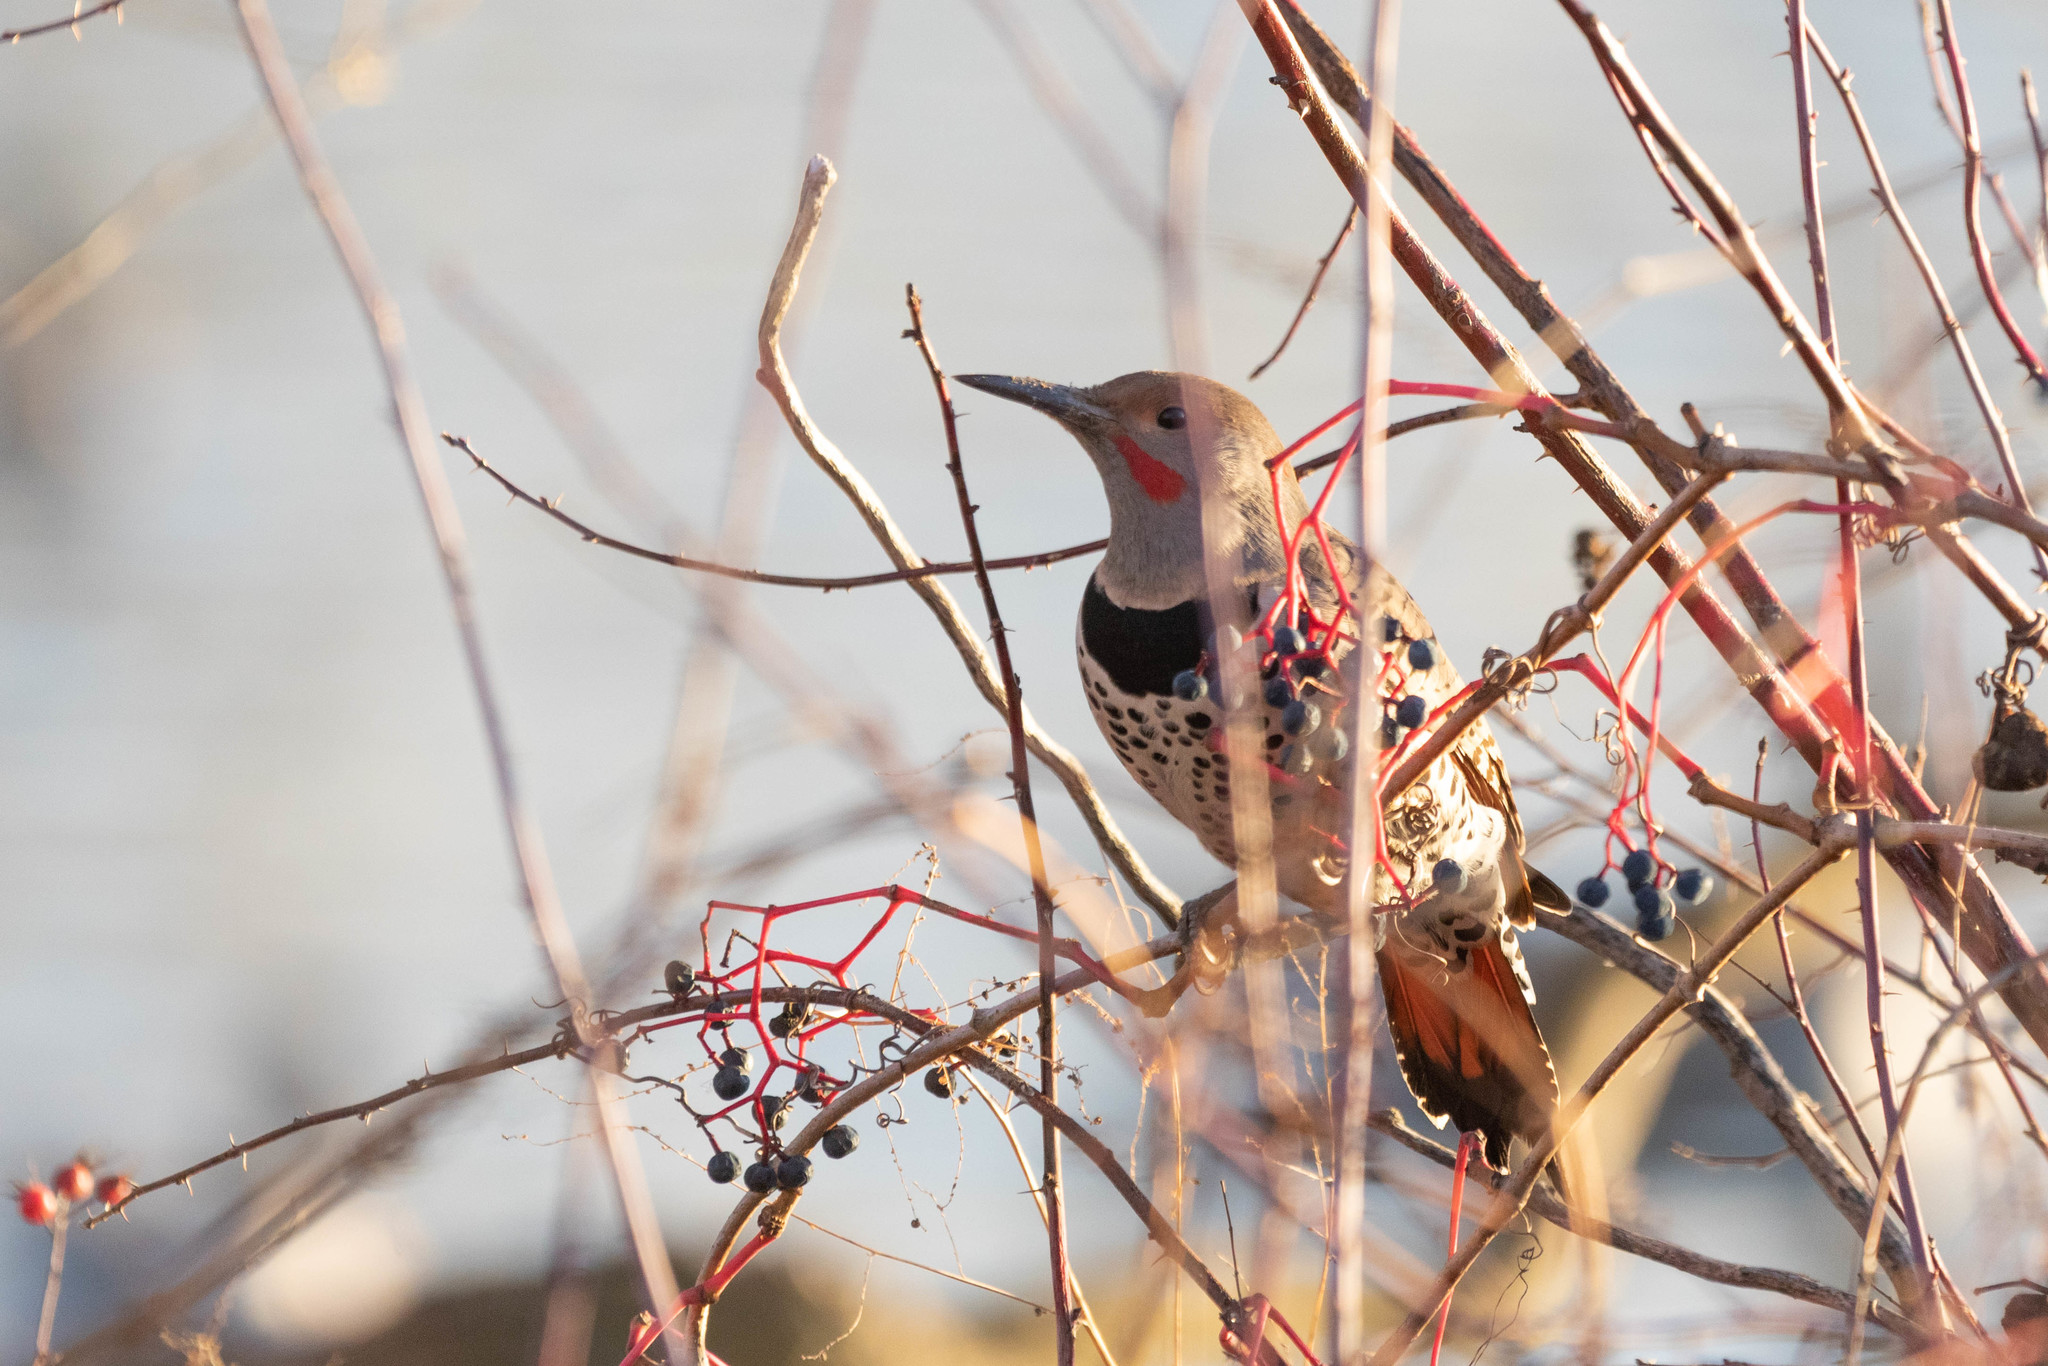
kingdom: Animalia
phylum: Chordata
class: Aves
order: Piciformes
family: Picidae
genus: Colaptes
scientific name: Colaptes auratus
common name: Northern flicker
